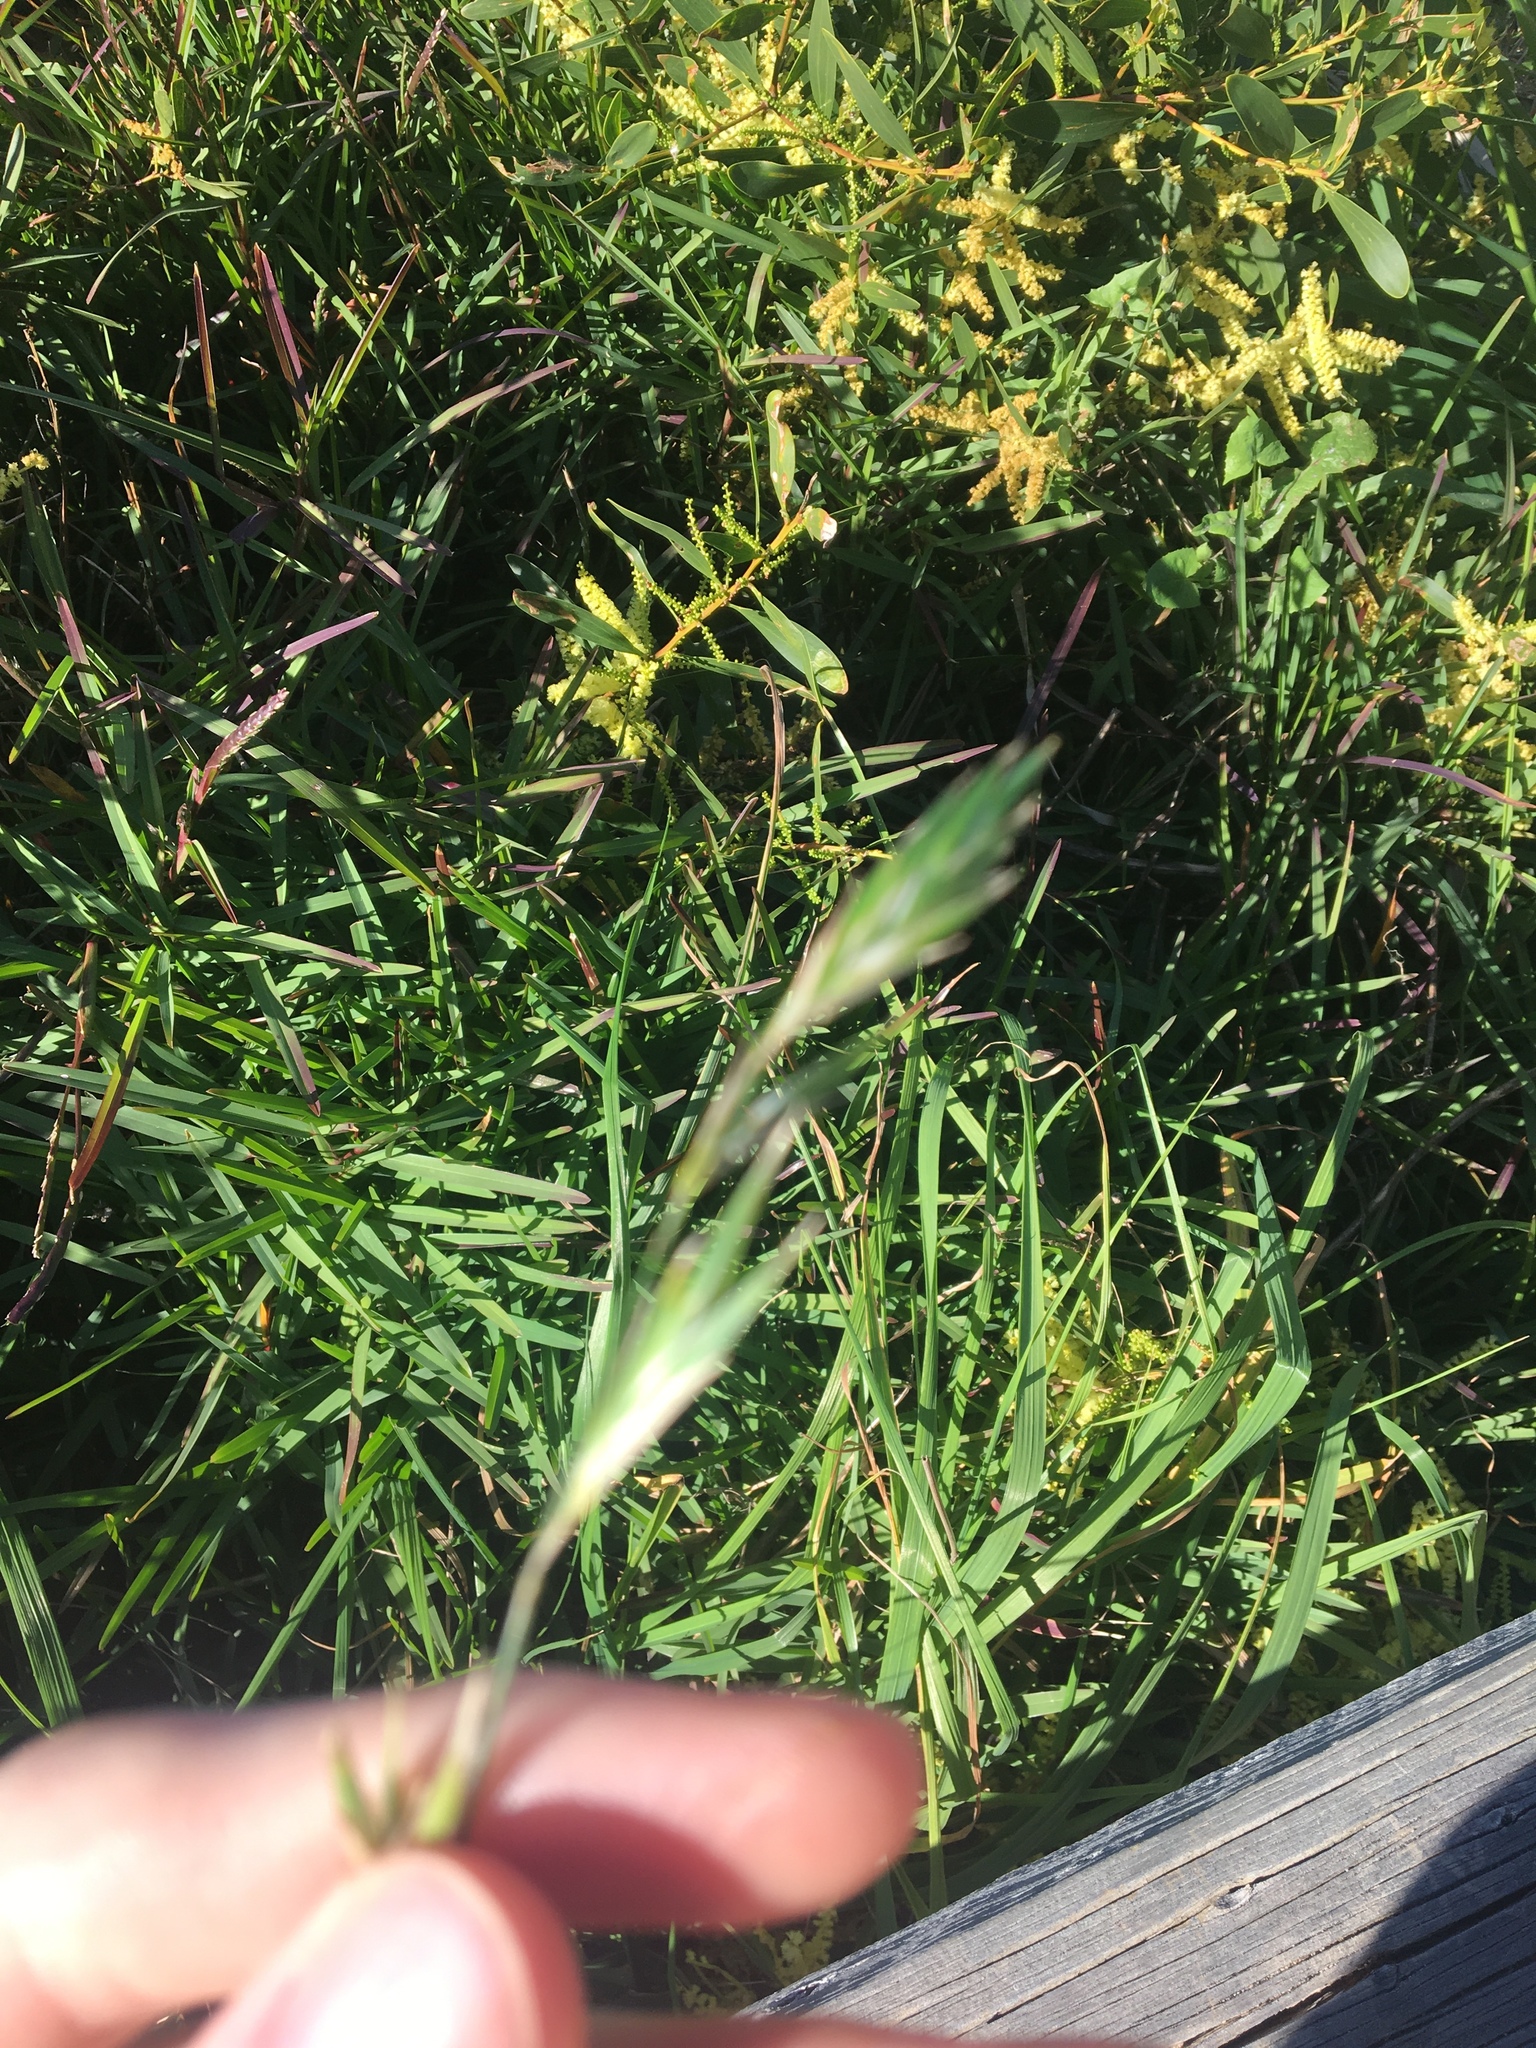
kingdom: Plantae
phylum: Tracheophyta
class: Liliopsida
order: Poales
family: Poaceae
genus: Stenotaphrum
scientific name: Stenotaphrum secundatum
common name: St. augustine grass
